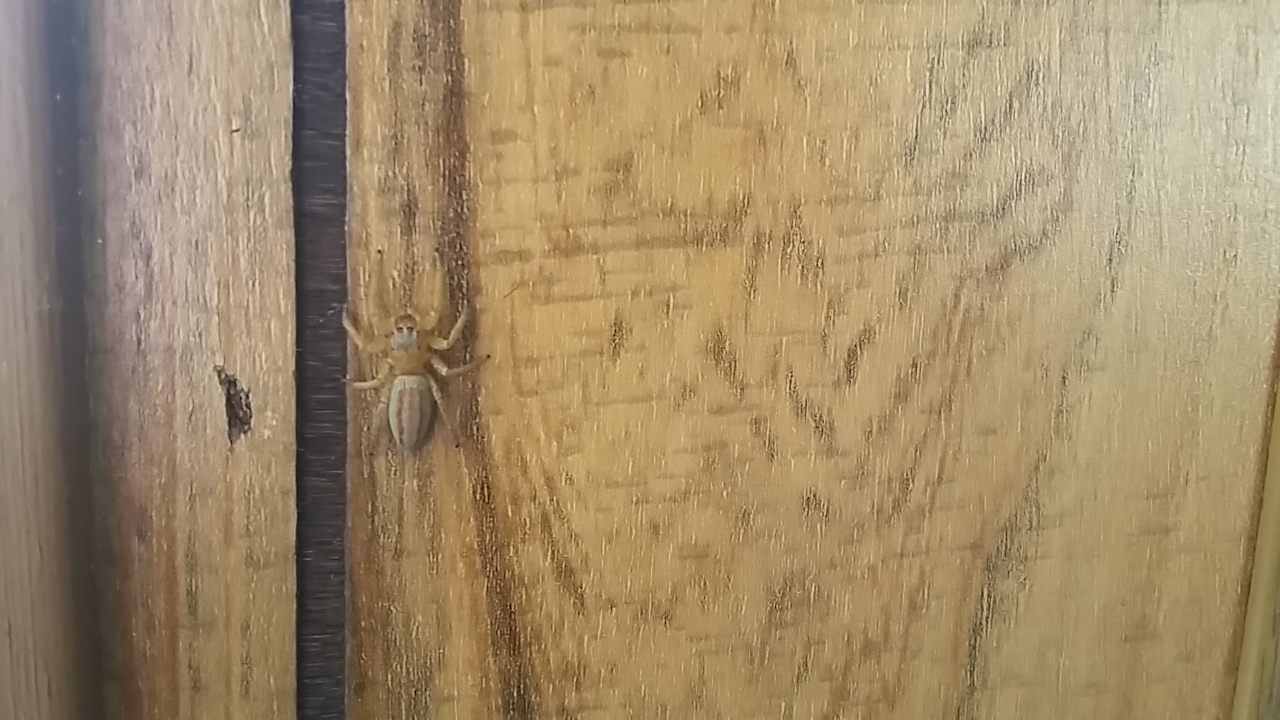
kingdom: Animalia
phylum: Arthropoda
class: Arachnida
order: Araneae
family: Salticidae
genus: Paramaevia
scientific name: Paramaevia poultoni
